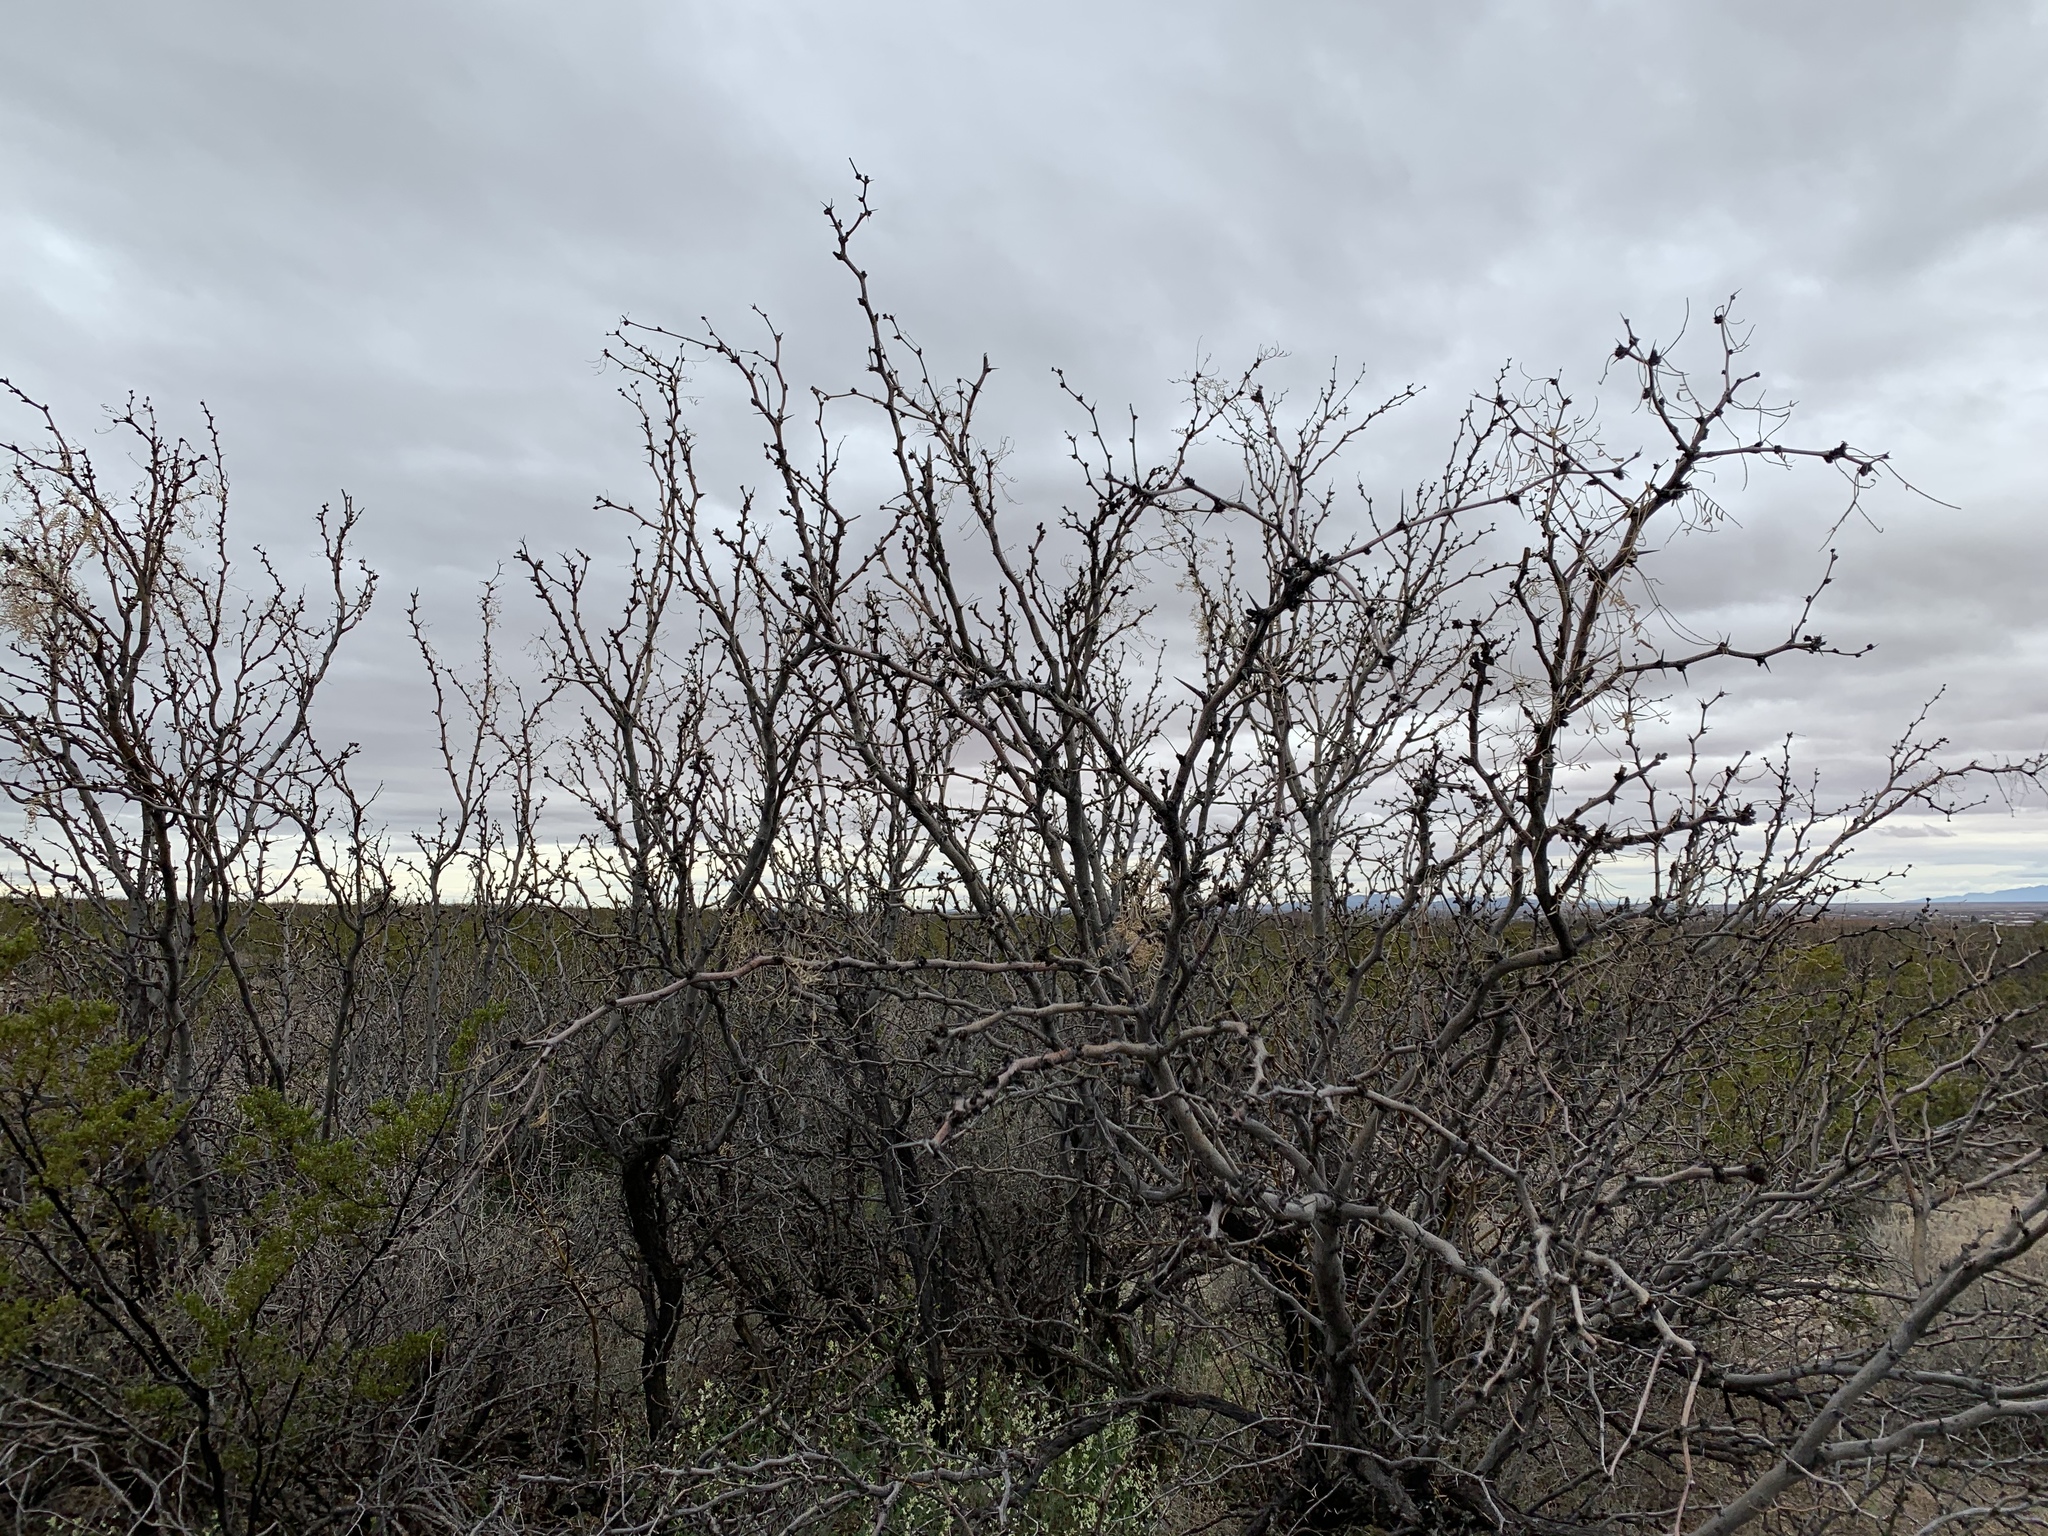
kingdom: Plantae
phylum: Tracheophyta
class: Magnoliopsida
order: Fabales
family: Fabaceae
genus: Prosopis
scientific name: Prosopis glandulosa
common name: Honey mesquite
